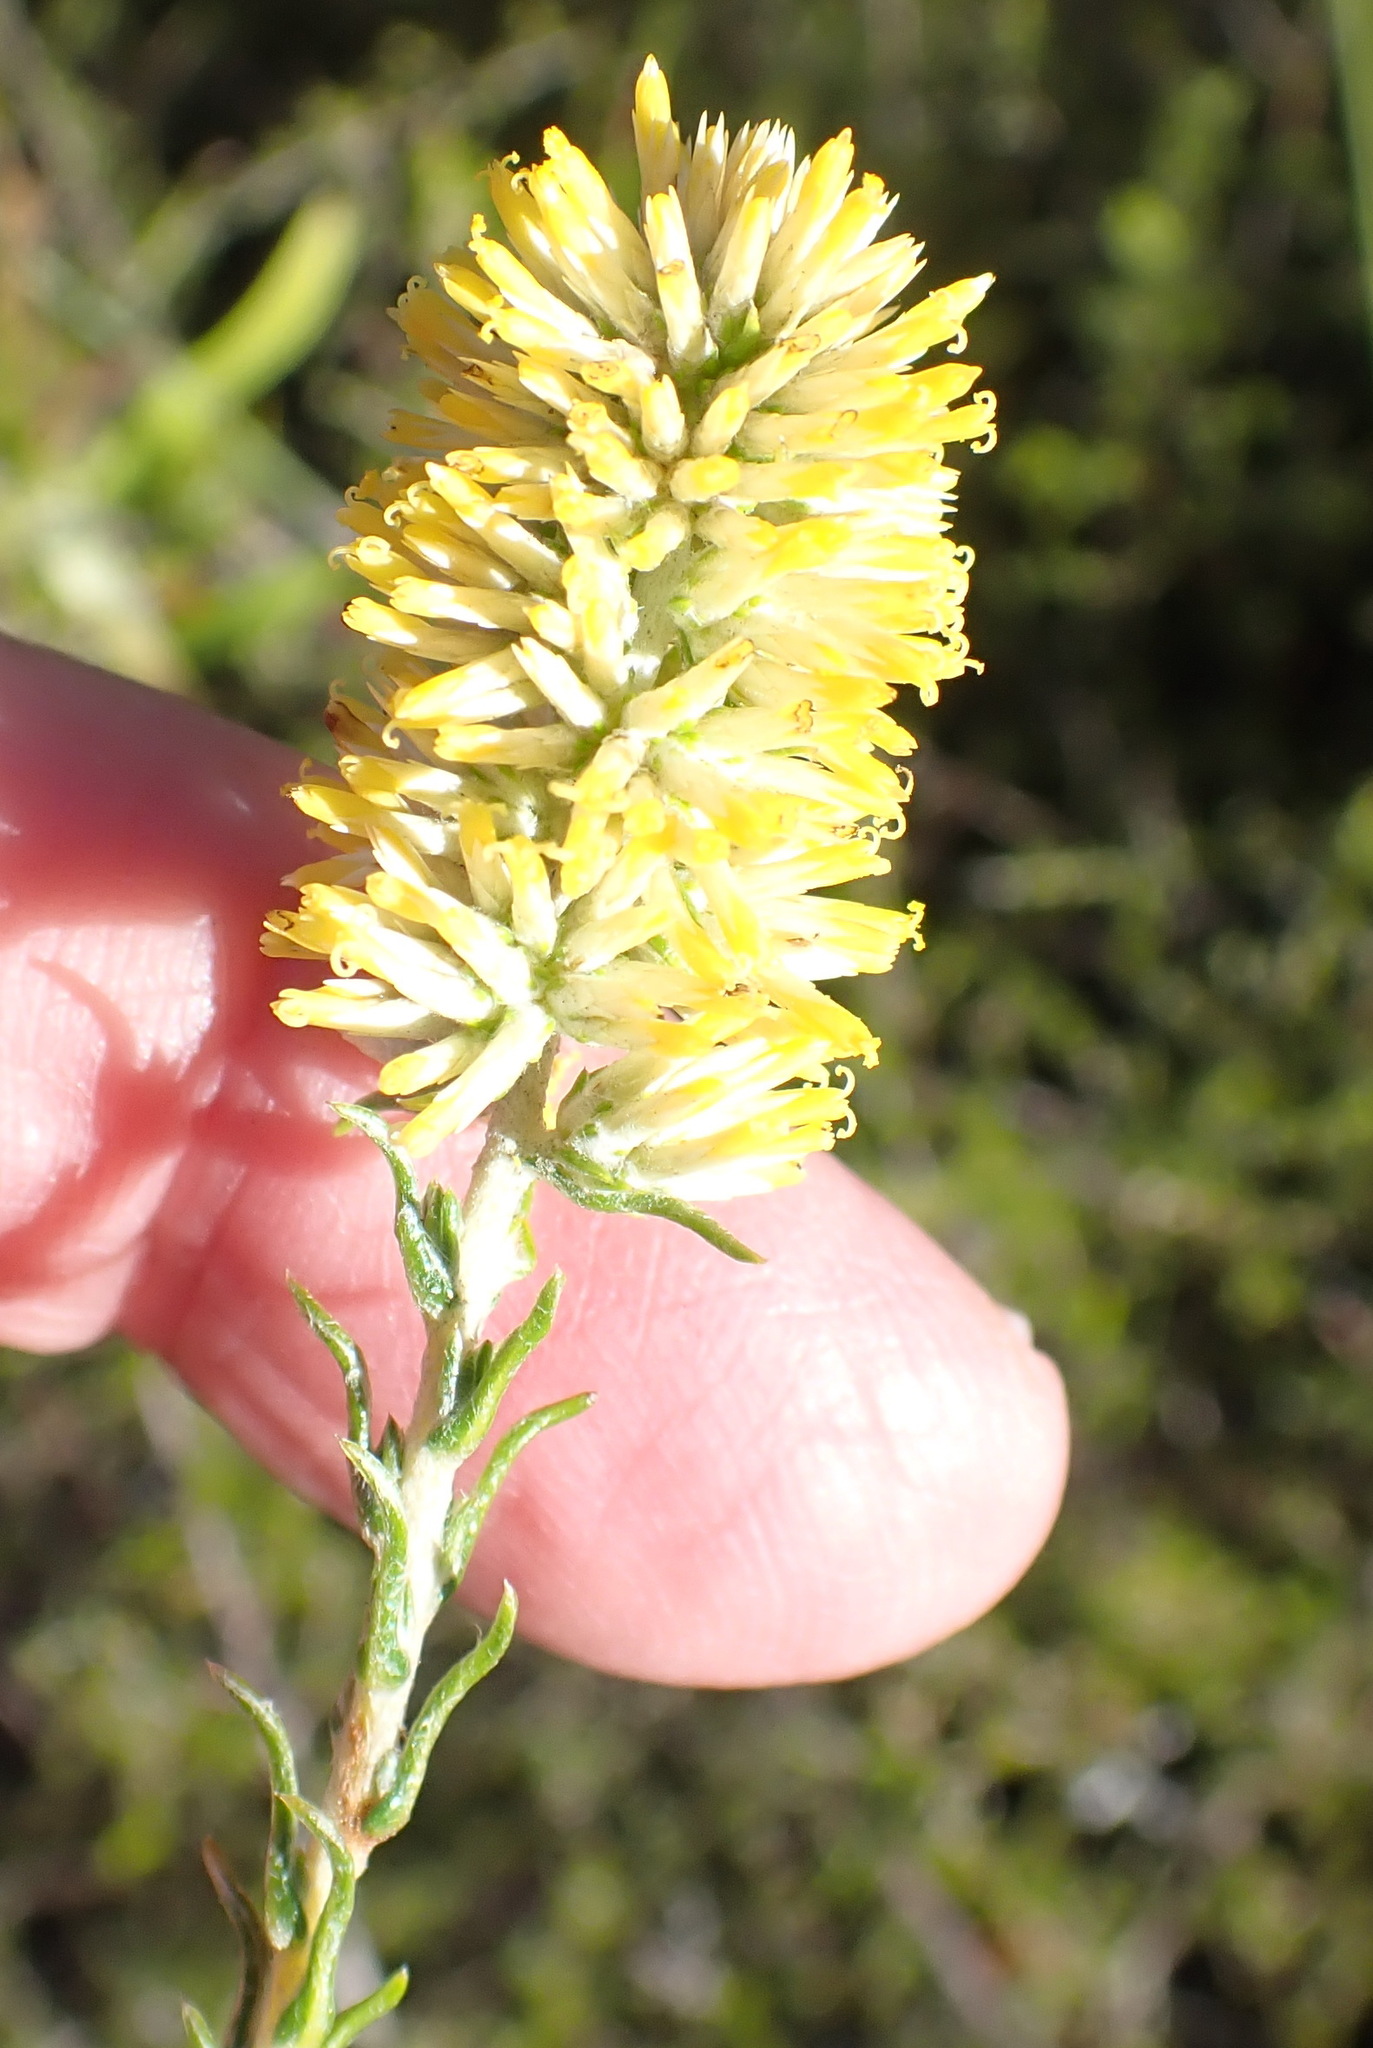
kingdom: Plantae
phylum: Tracheophyta
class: Magnoliopsida
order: Asterales
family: Asteraceae
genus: Seriphium
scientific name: Seriphium spirale
